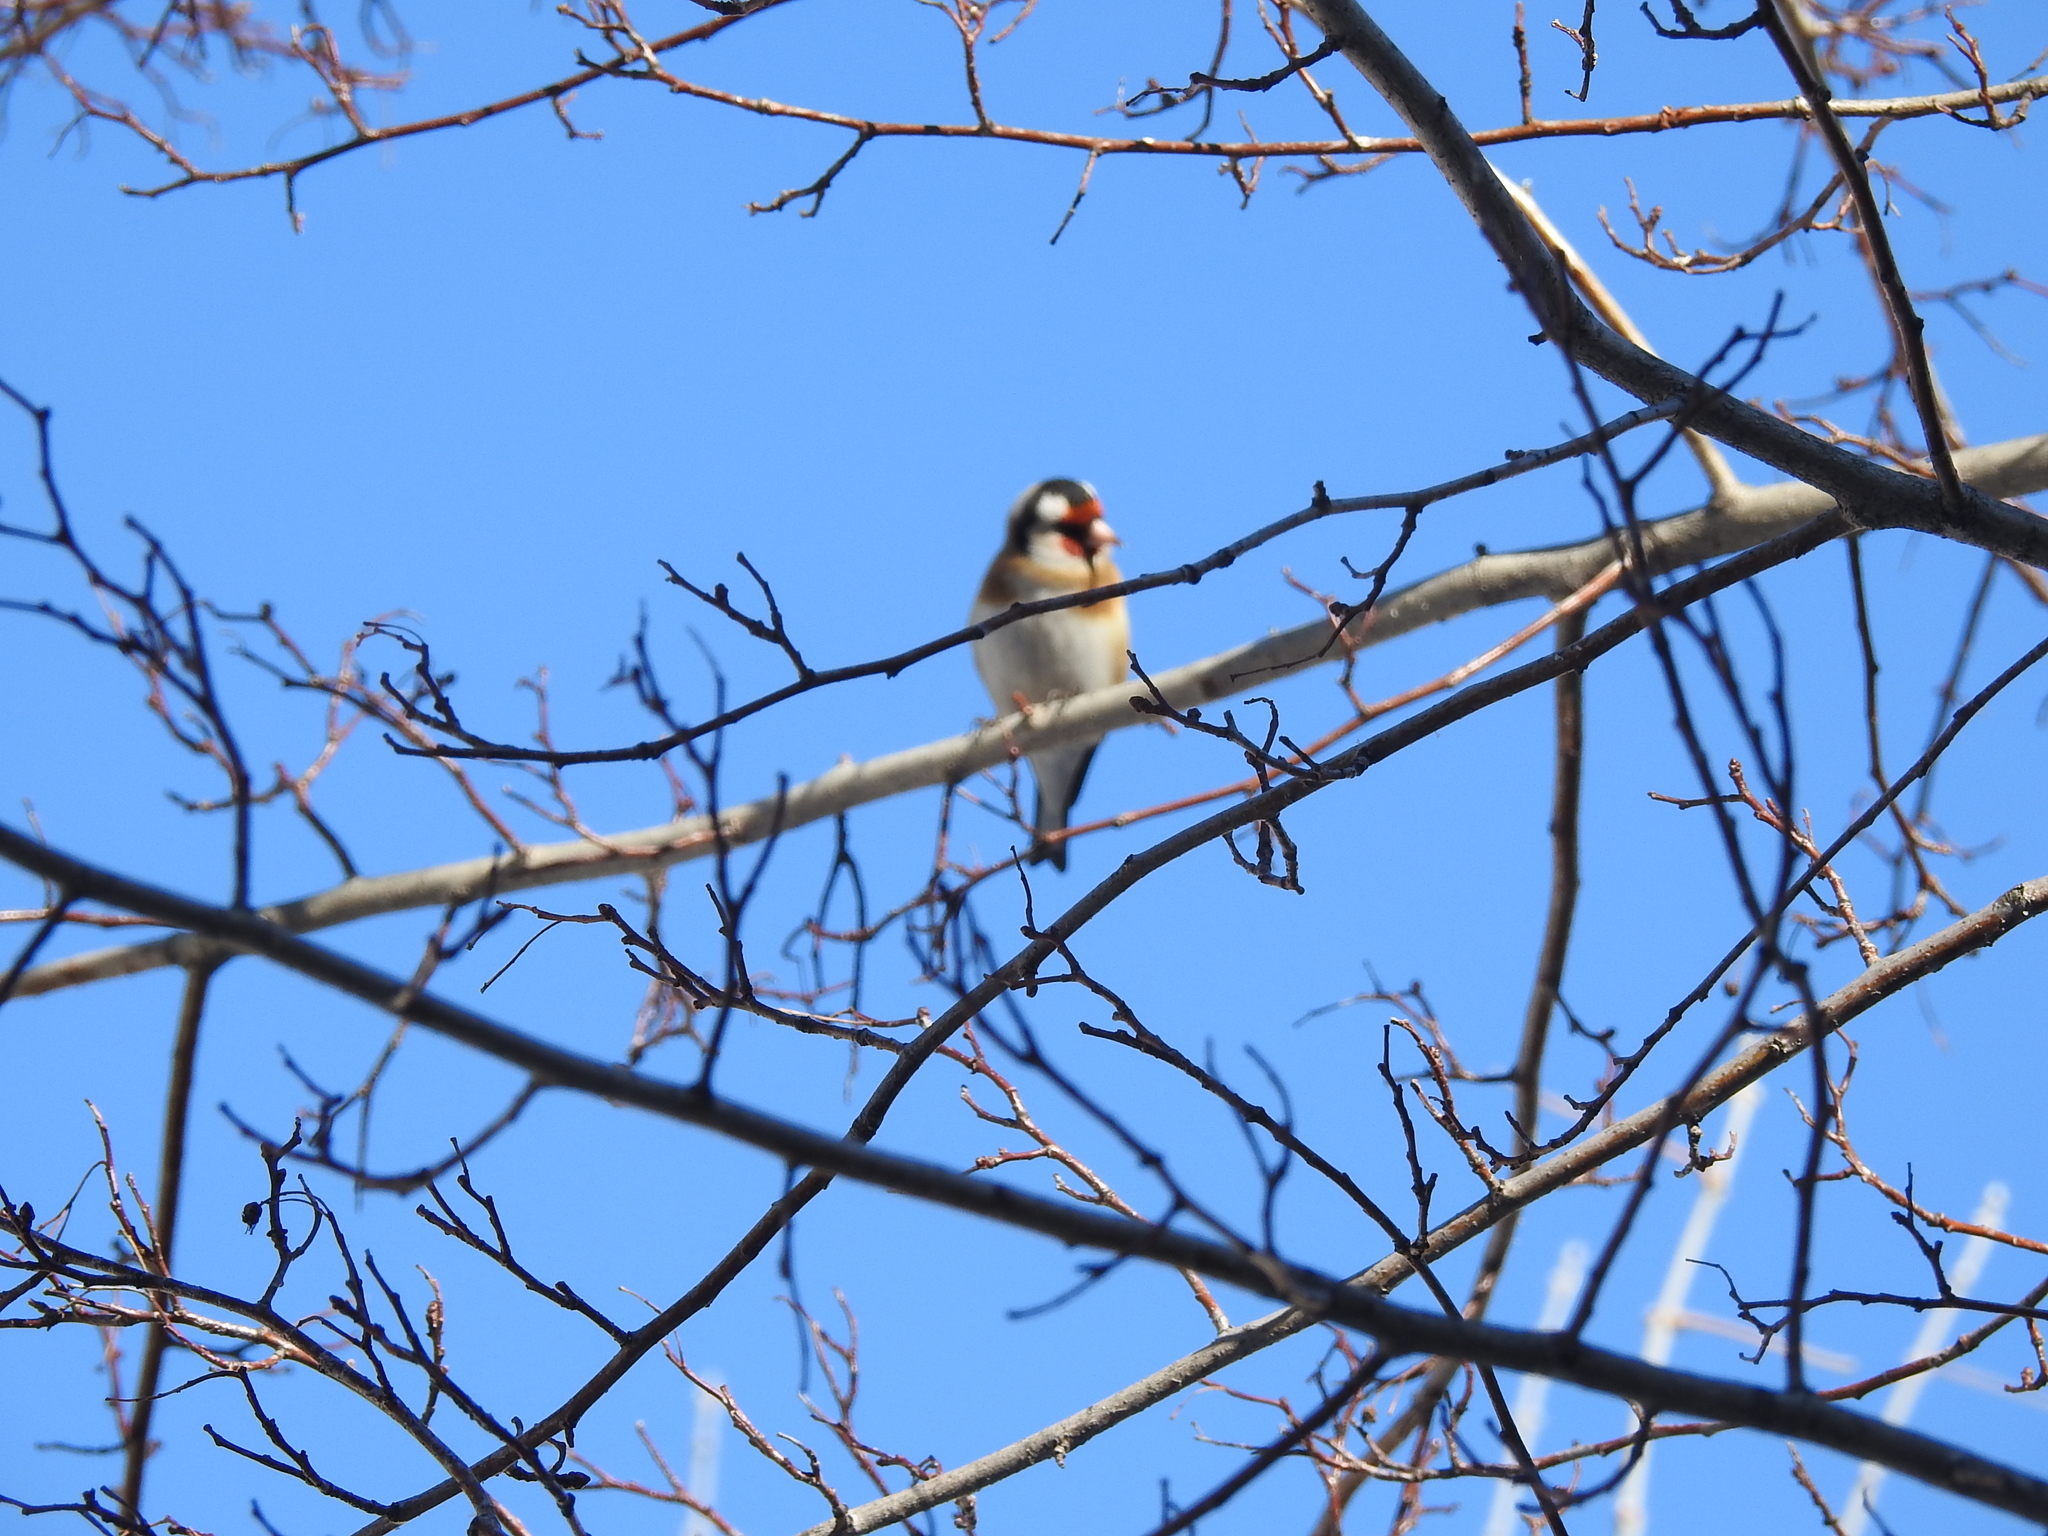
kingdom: Animalia
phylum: Chordata
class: Aves
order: Passeriformes
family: Fringillidae
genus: Carduelis
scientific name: Carduelis carduelis
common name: European goldfinch
